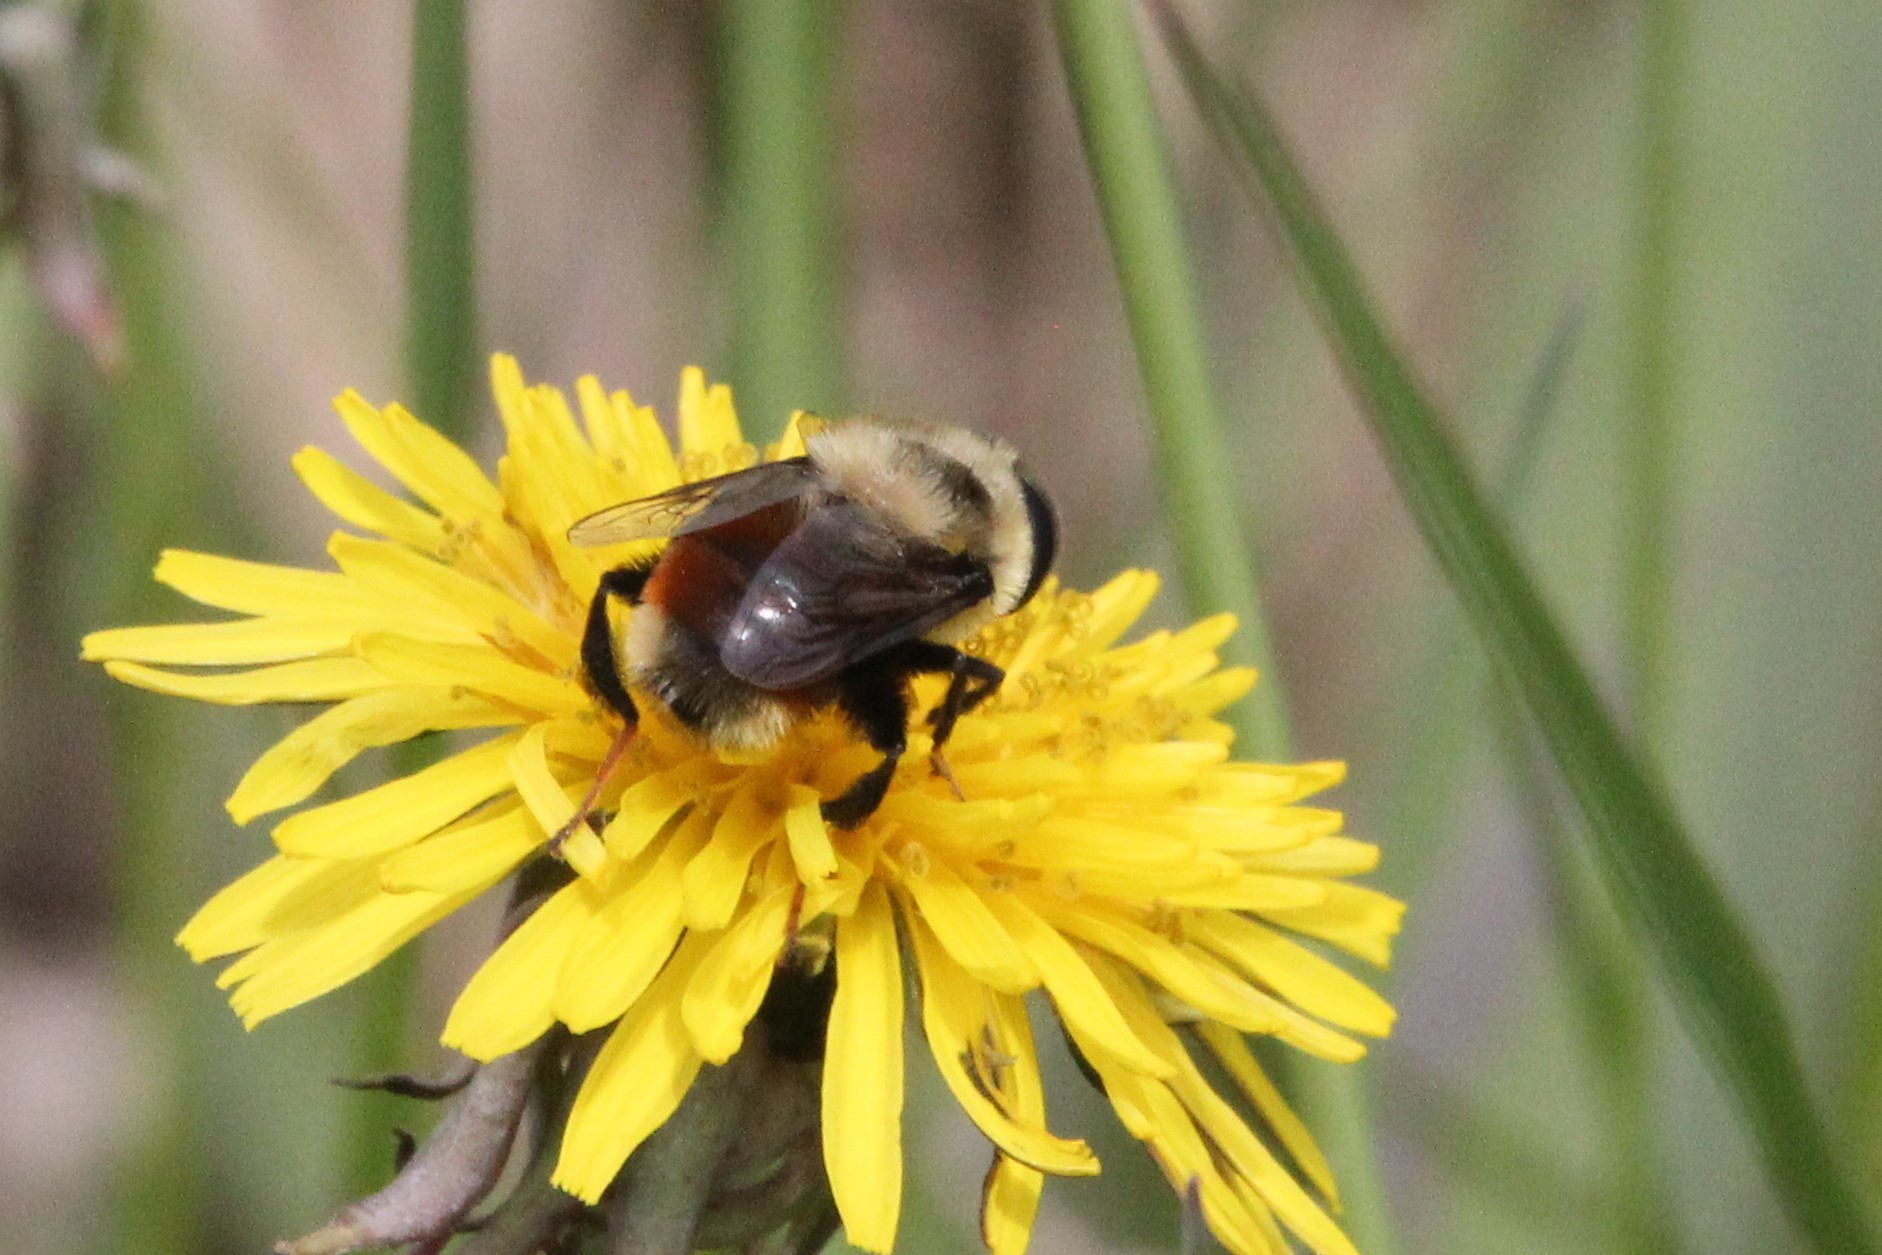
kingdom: Animalia
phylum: Arthropoda
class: Insecta
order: Diptera
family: Syrphidae
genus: Eristalis
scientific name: Eristalis flavipes
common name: Orange-legged drone fly
